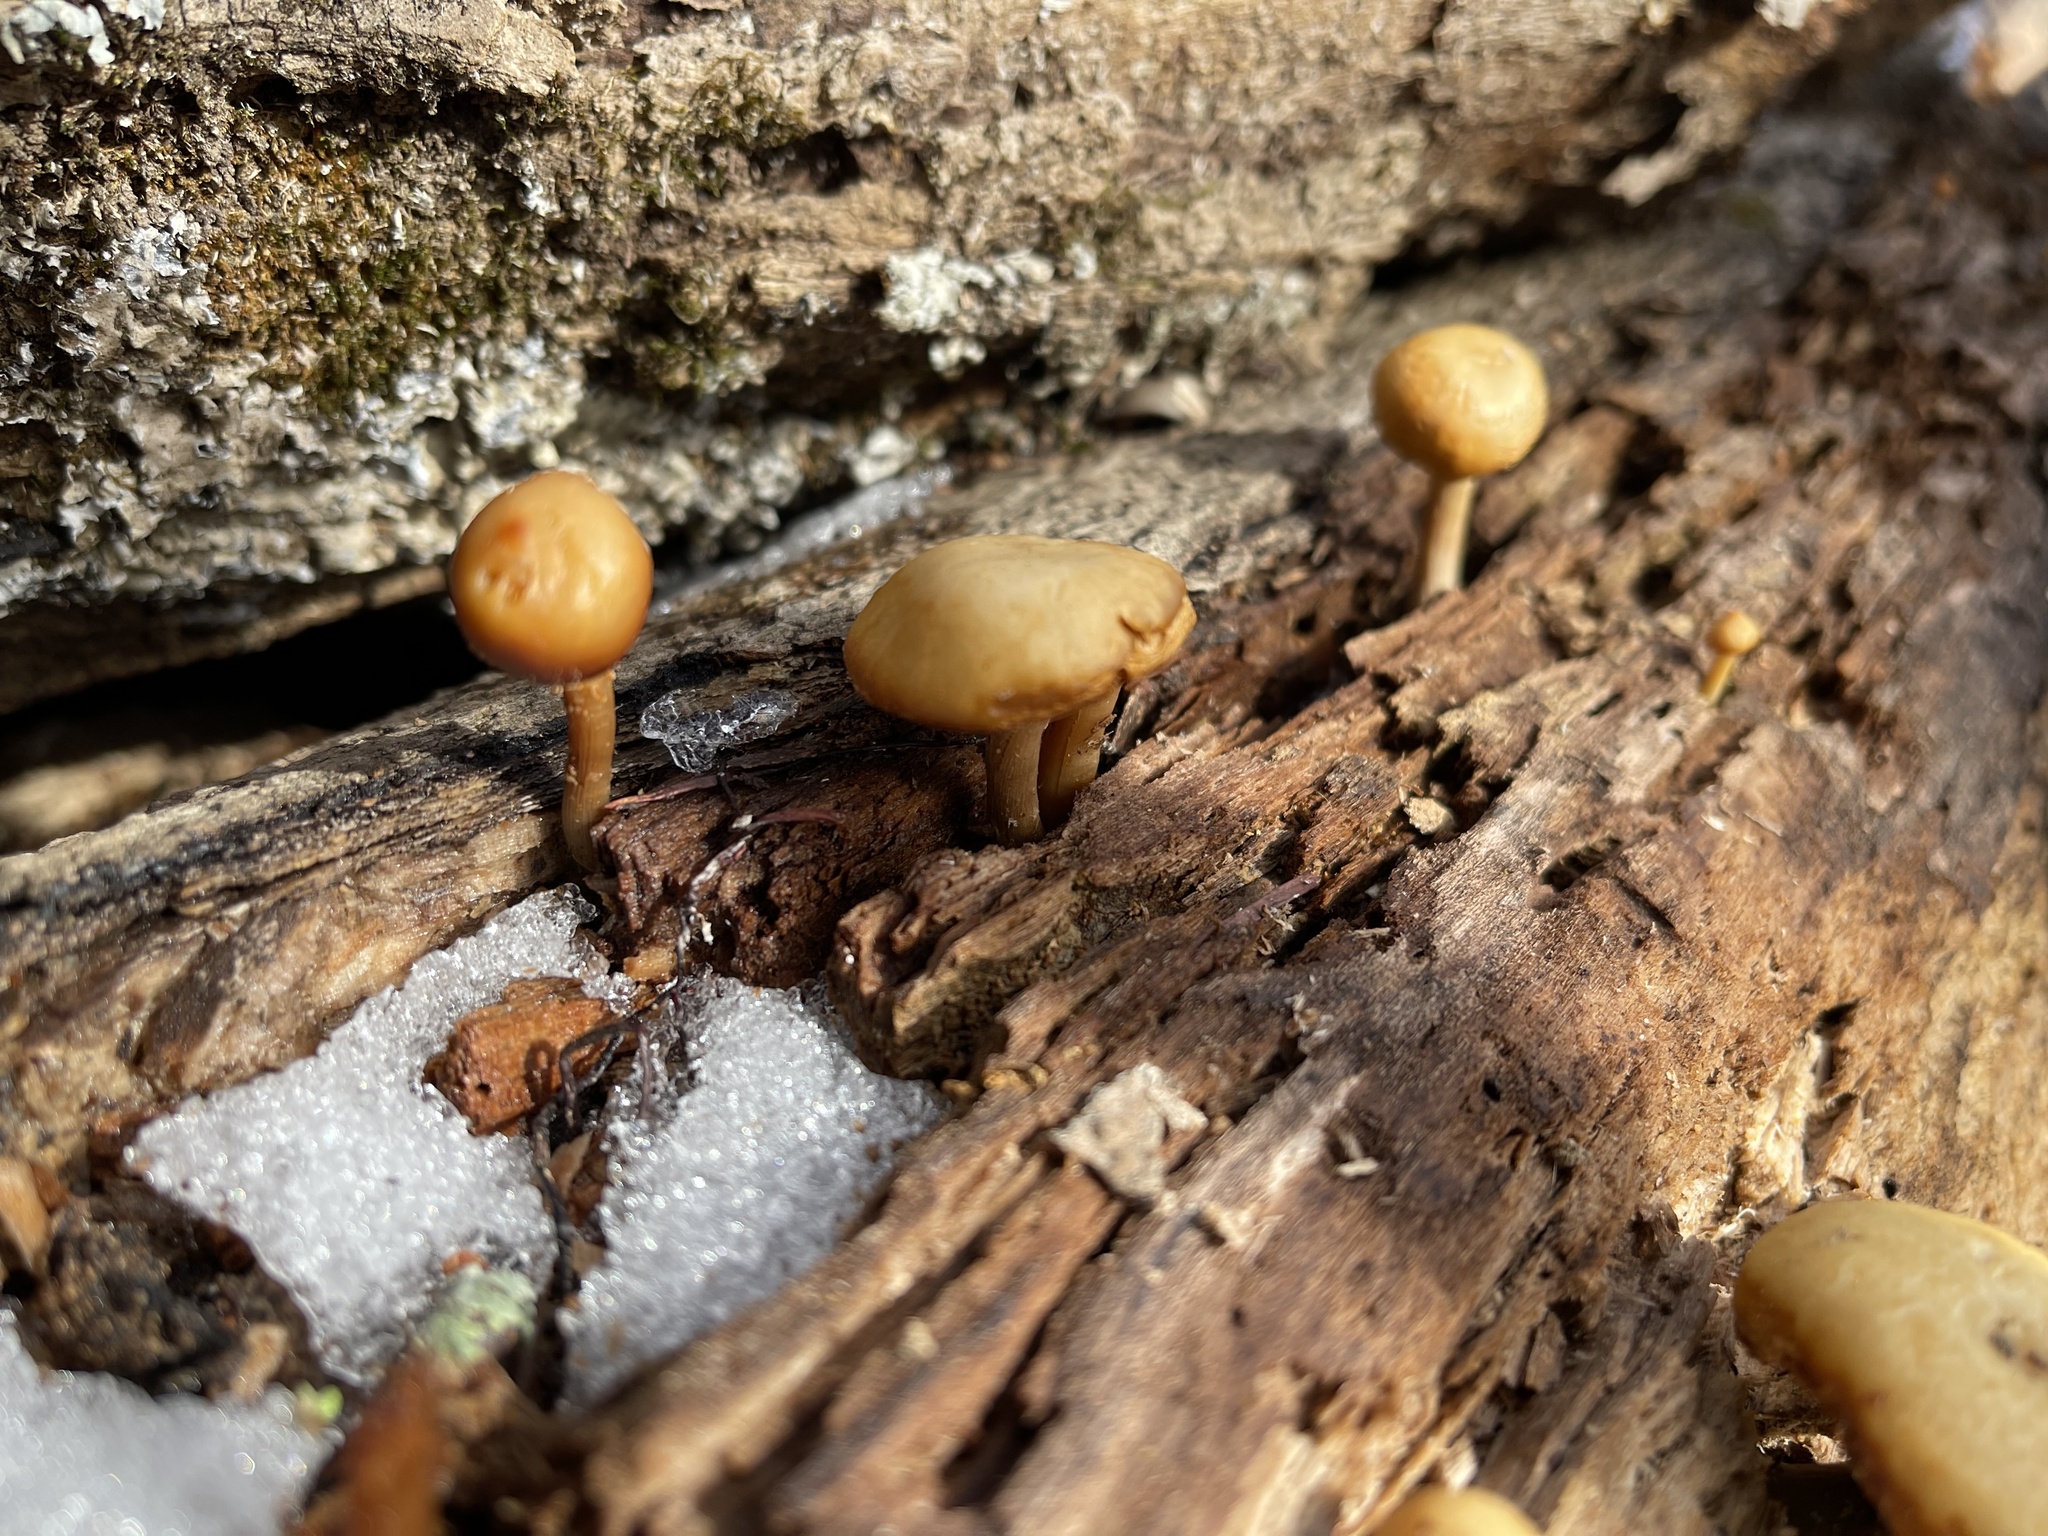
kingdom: Fungi
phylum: Basidiomycota
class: Agaricomycetes
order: Agaricales
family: Hymenogastraceae
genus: Galerina
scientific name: Galerina marginata
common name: Funeral bell
